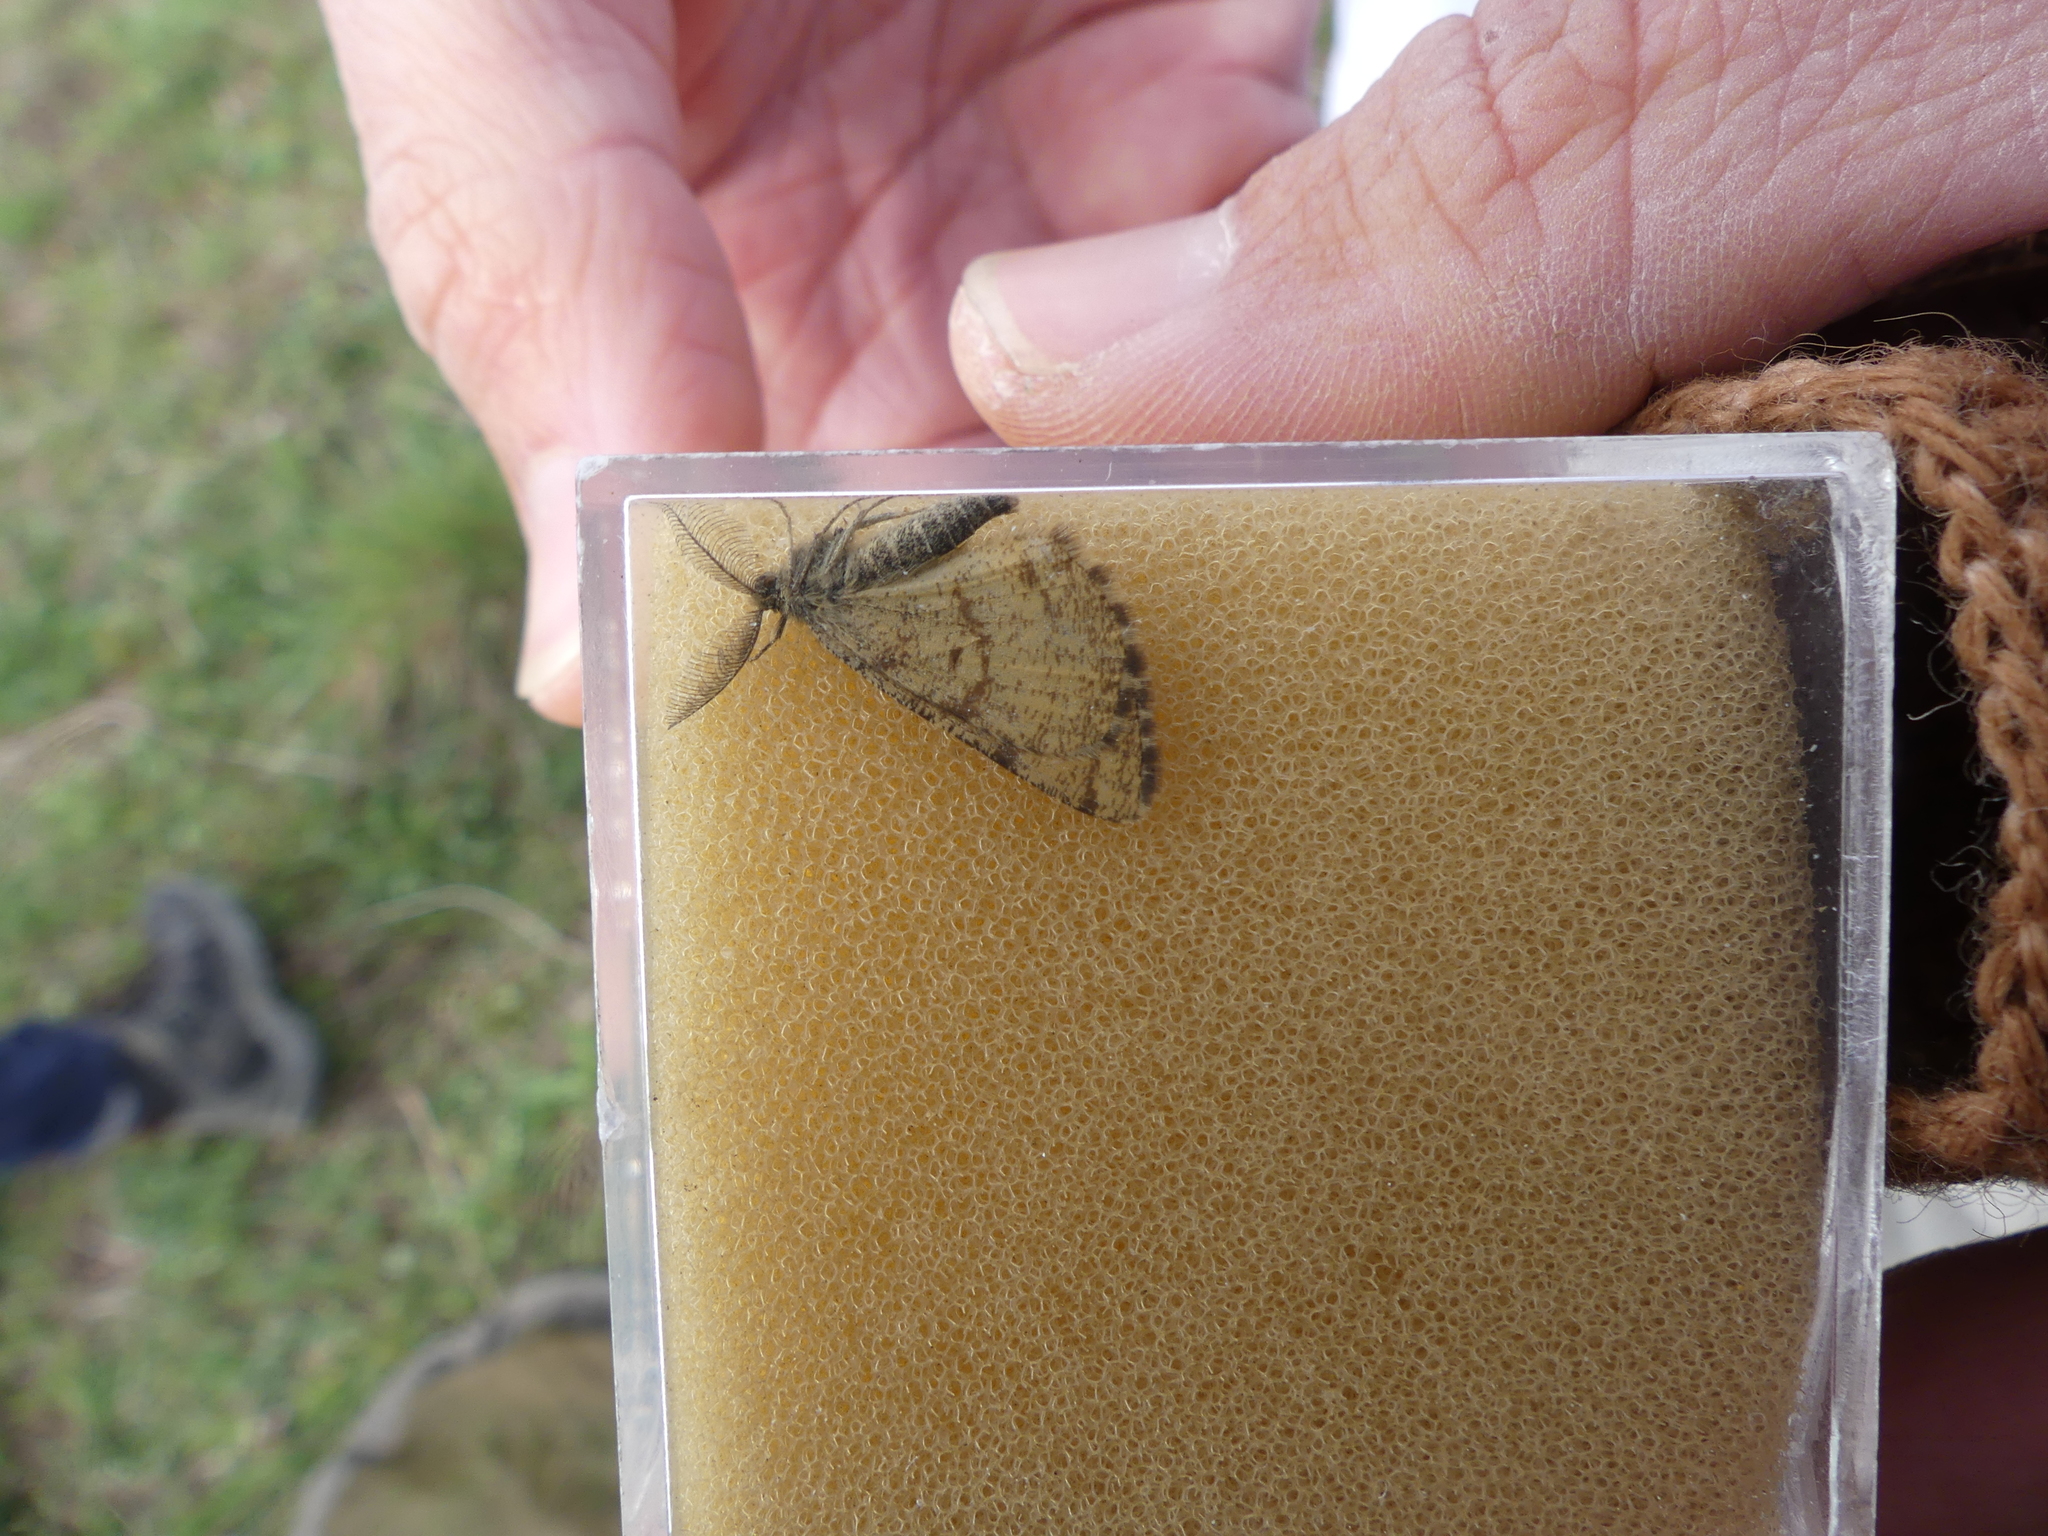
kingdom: Animalia
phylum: Arthropoda
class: Insecta
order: Lepidoptera
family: Geometridae
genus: Ematurga
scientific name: Ematurga atomaria
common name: Common heath
